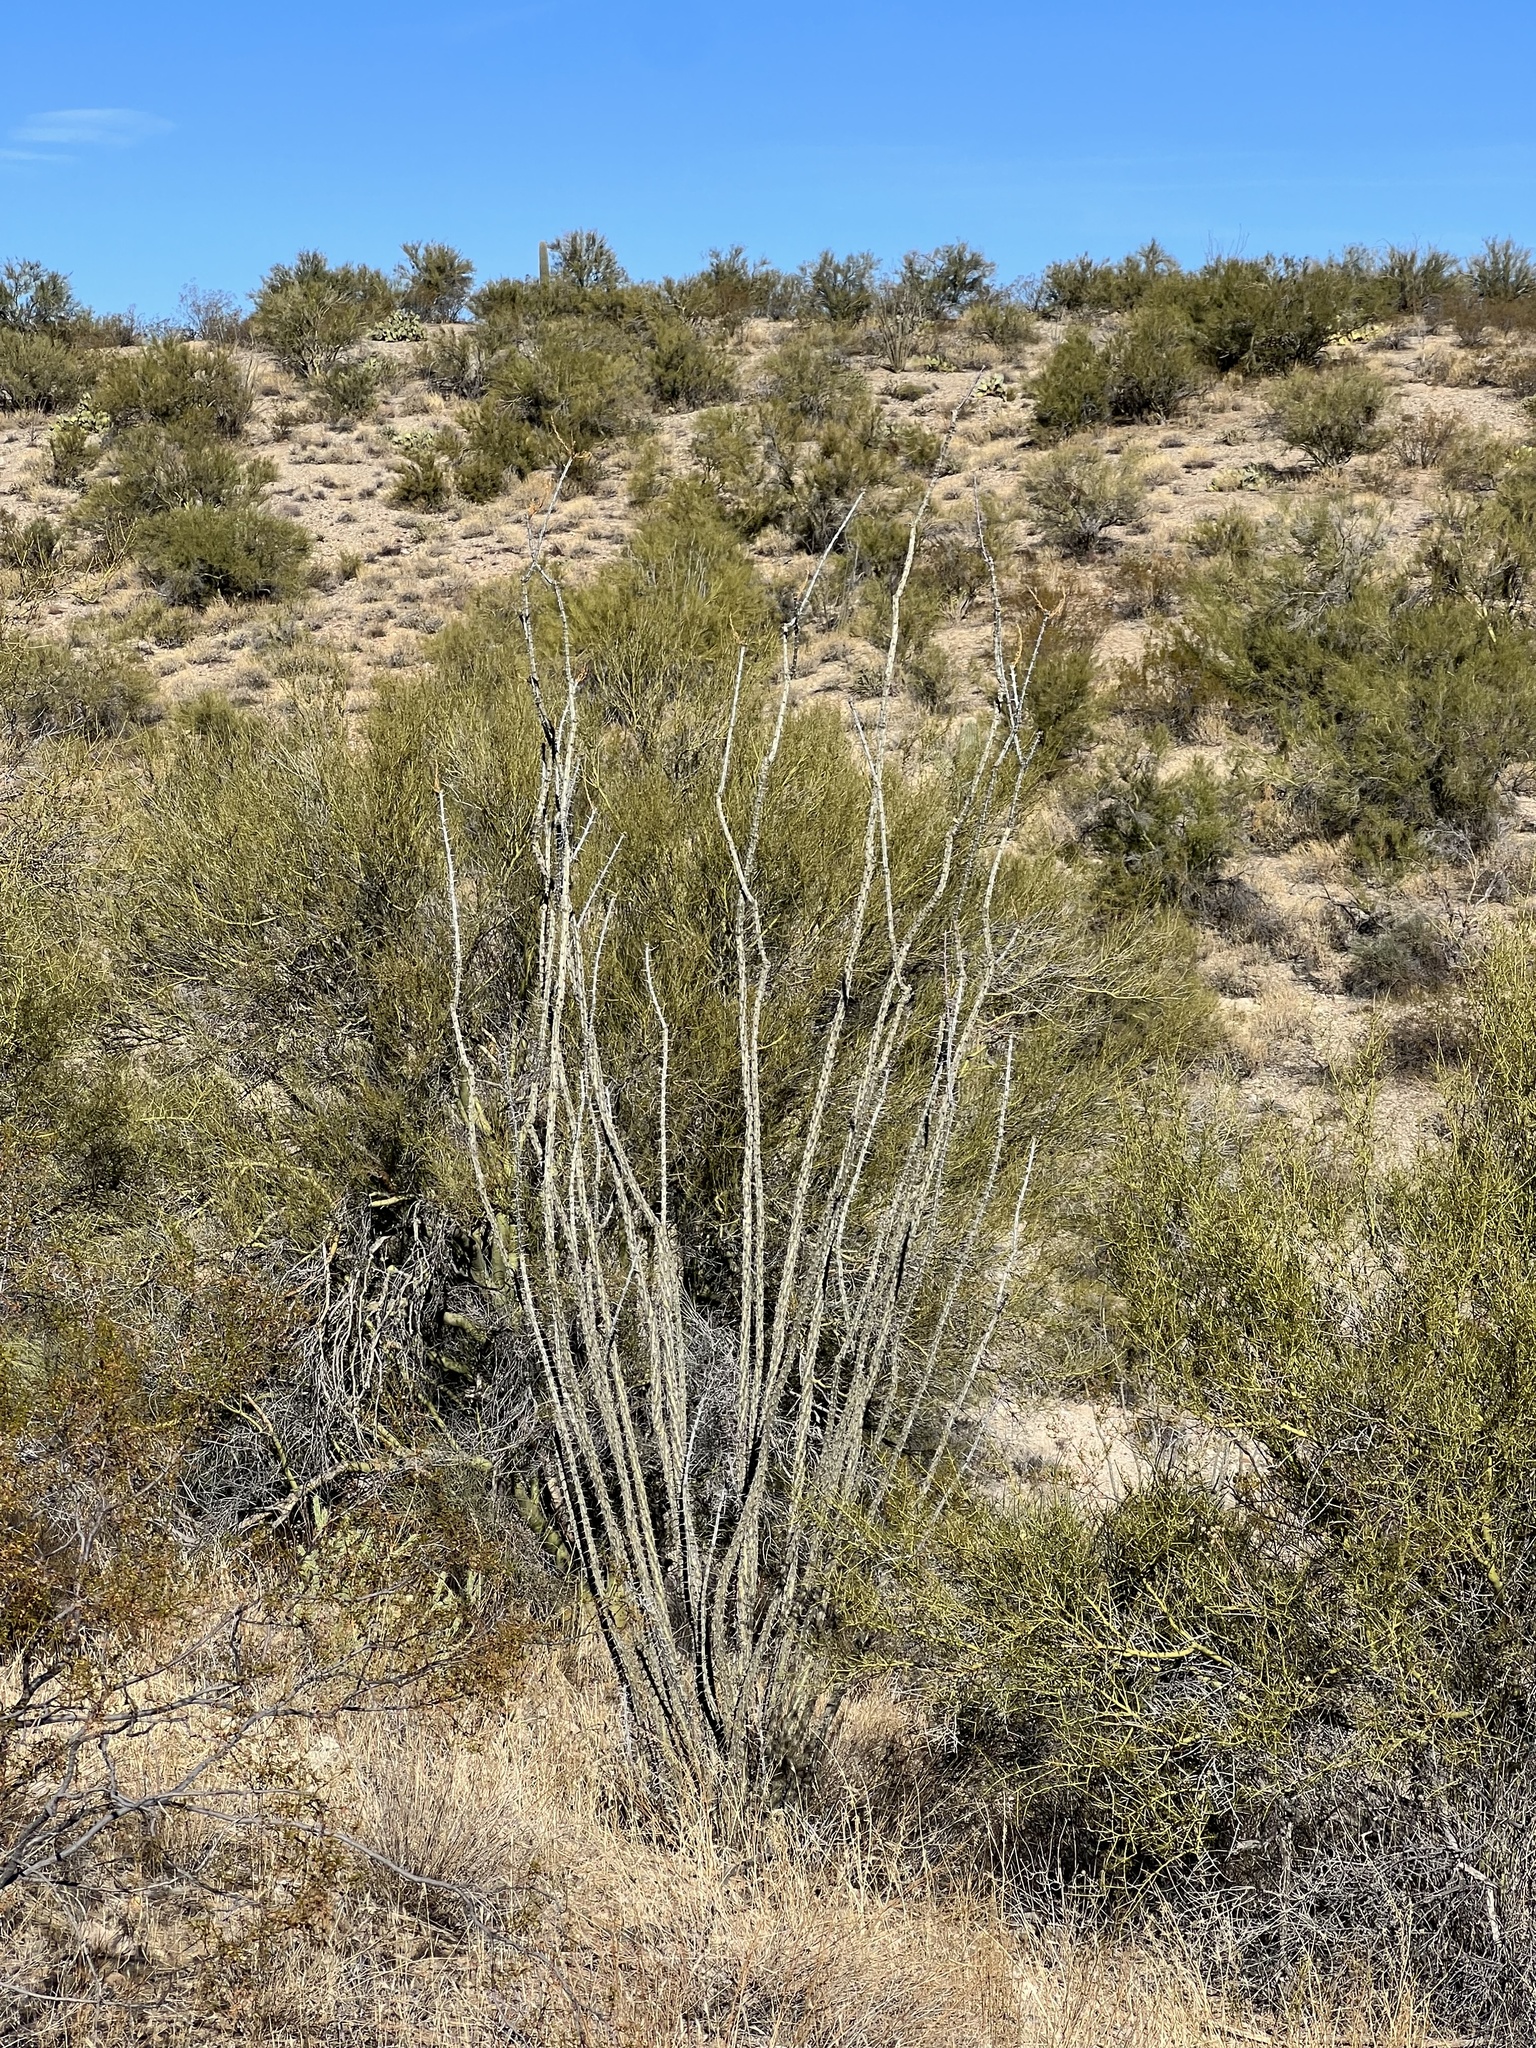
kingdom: Plantae
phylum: Tracheophyta
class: Magnoliopsida
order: Ericales
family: Fouquieriaceae
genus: Fouquieria
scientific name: Fouquieria splendens
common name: Vine-cactus
